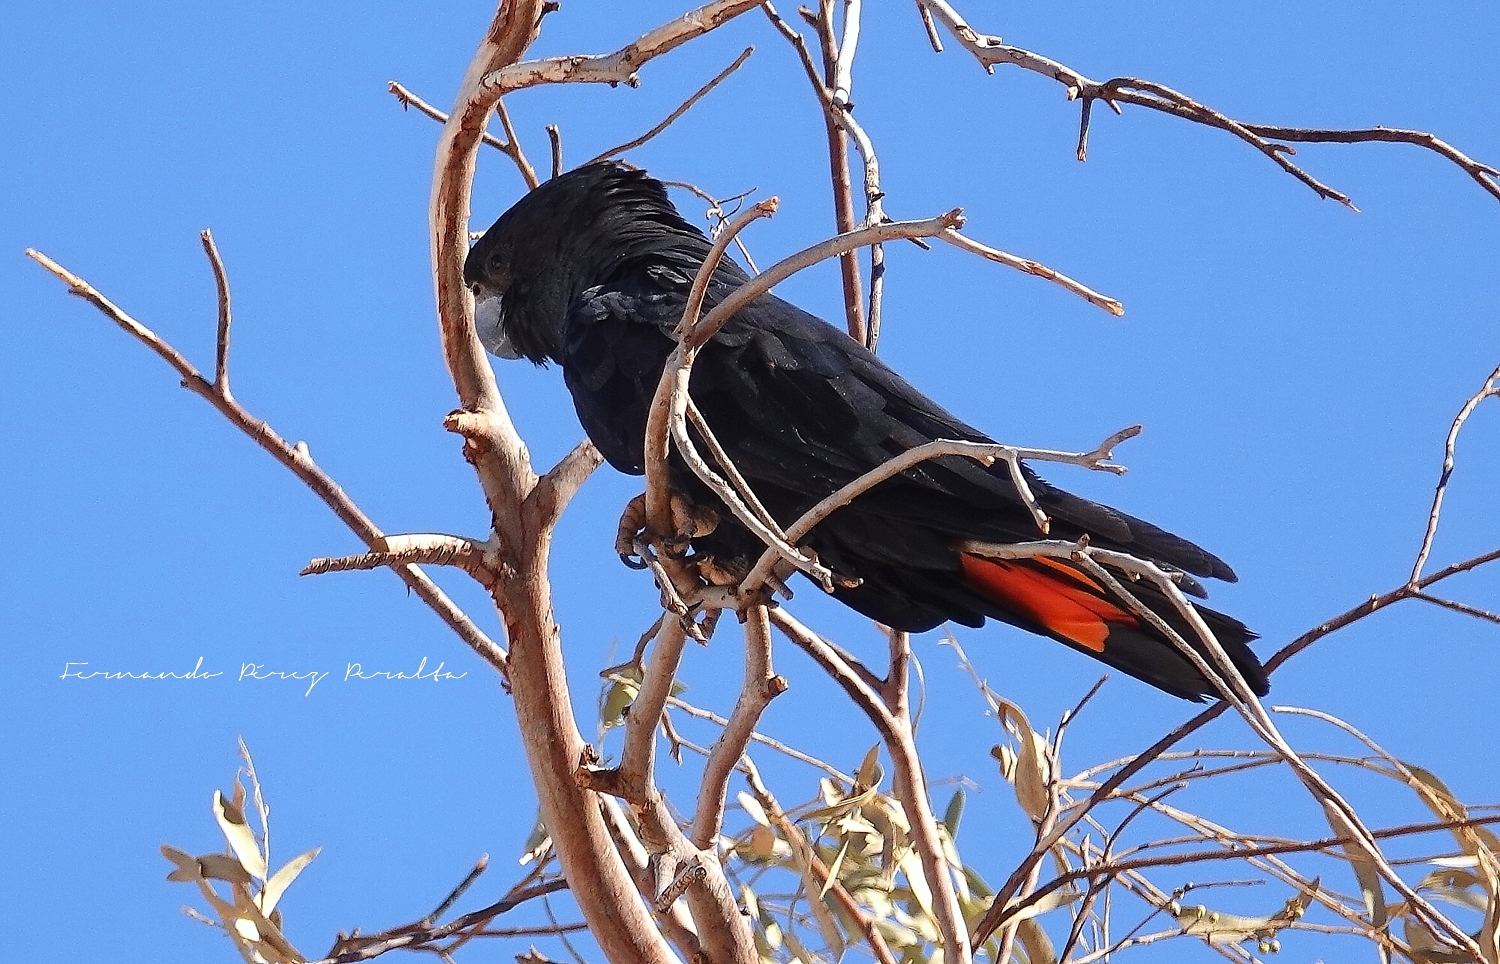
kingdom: Animalia
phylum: Chordata
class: Aves
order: Psittaciformes
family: Psittacidae
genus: Calyptorhynchus
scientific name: Calyptorhynchus banksii
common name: Red-tailed black cockatoo
